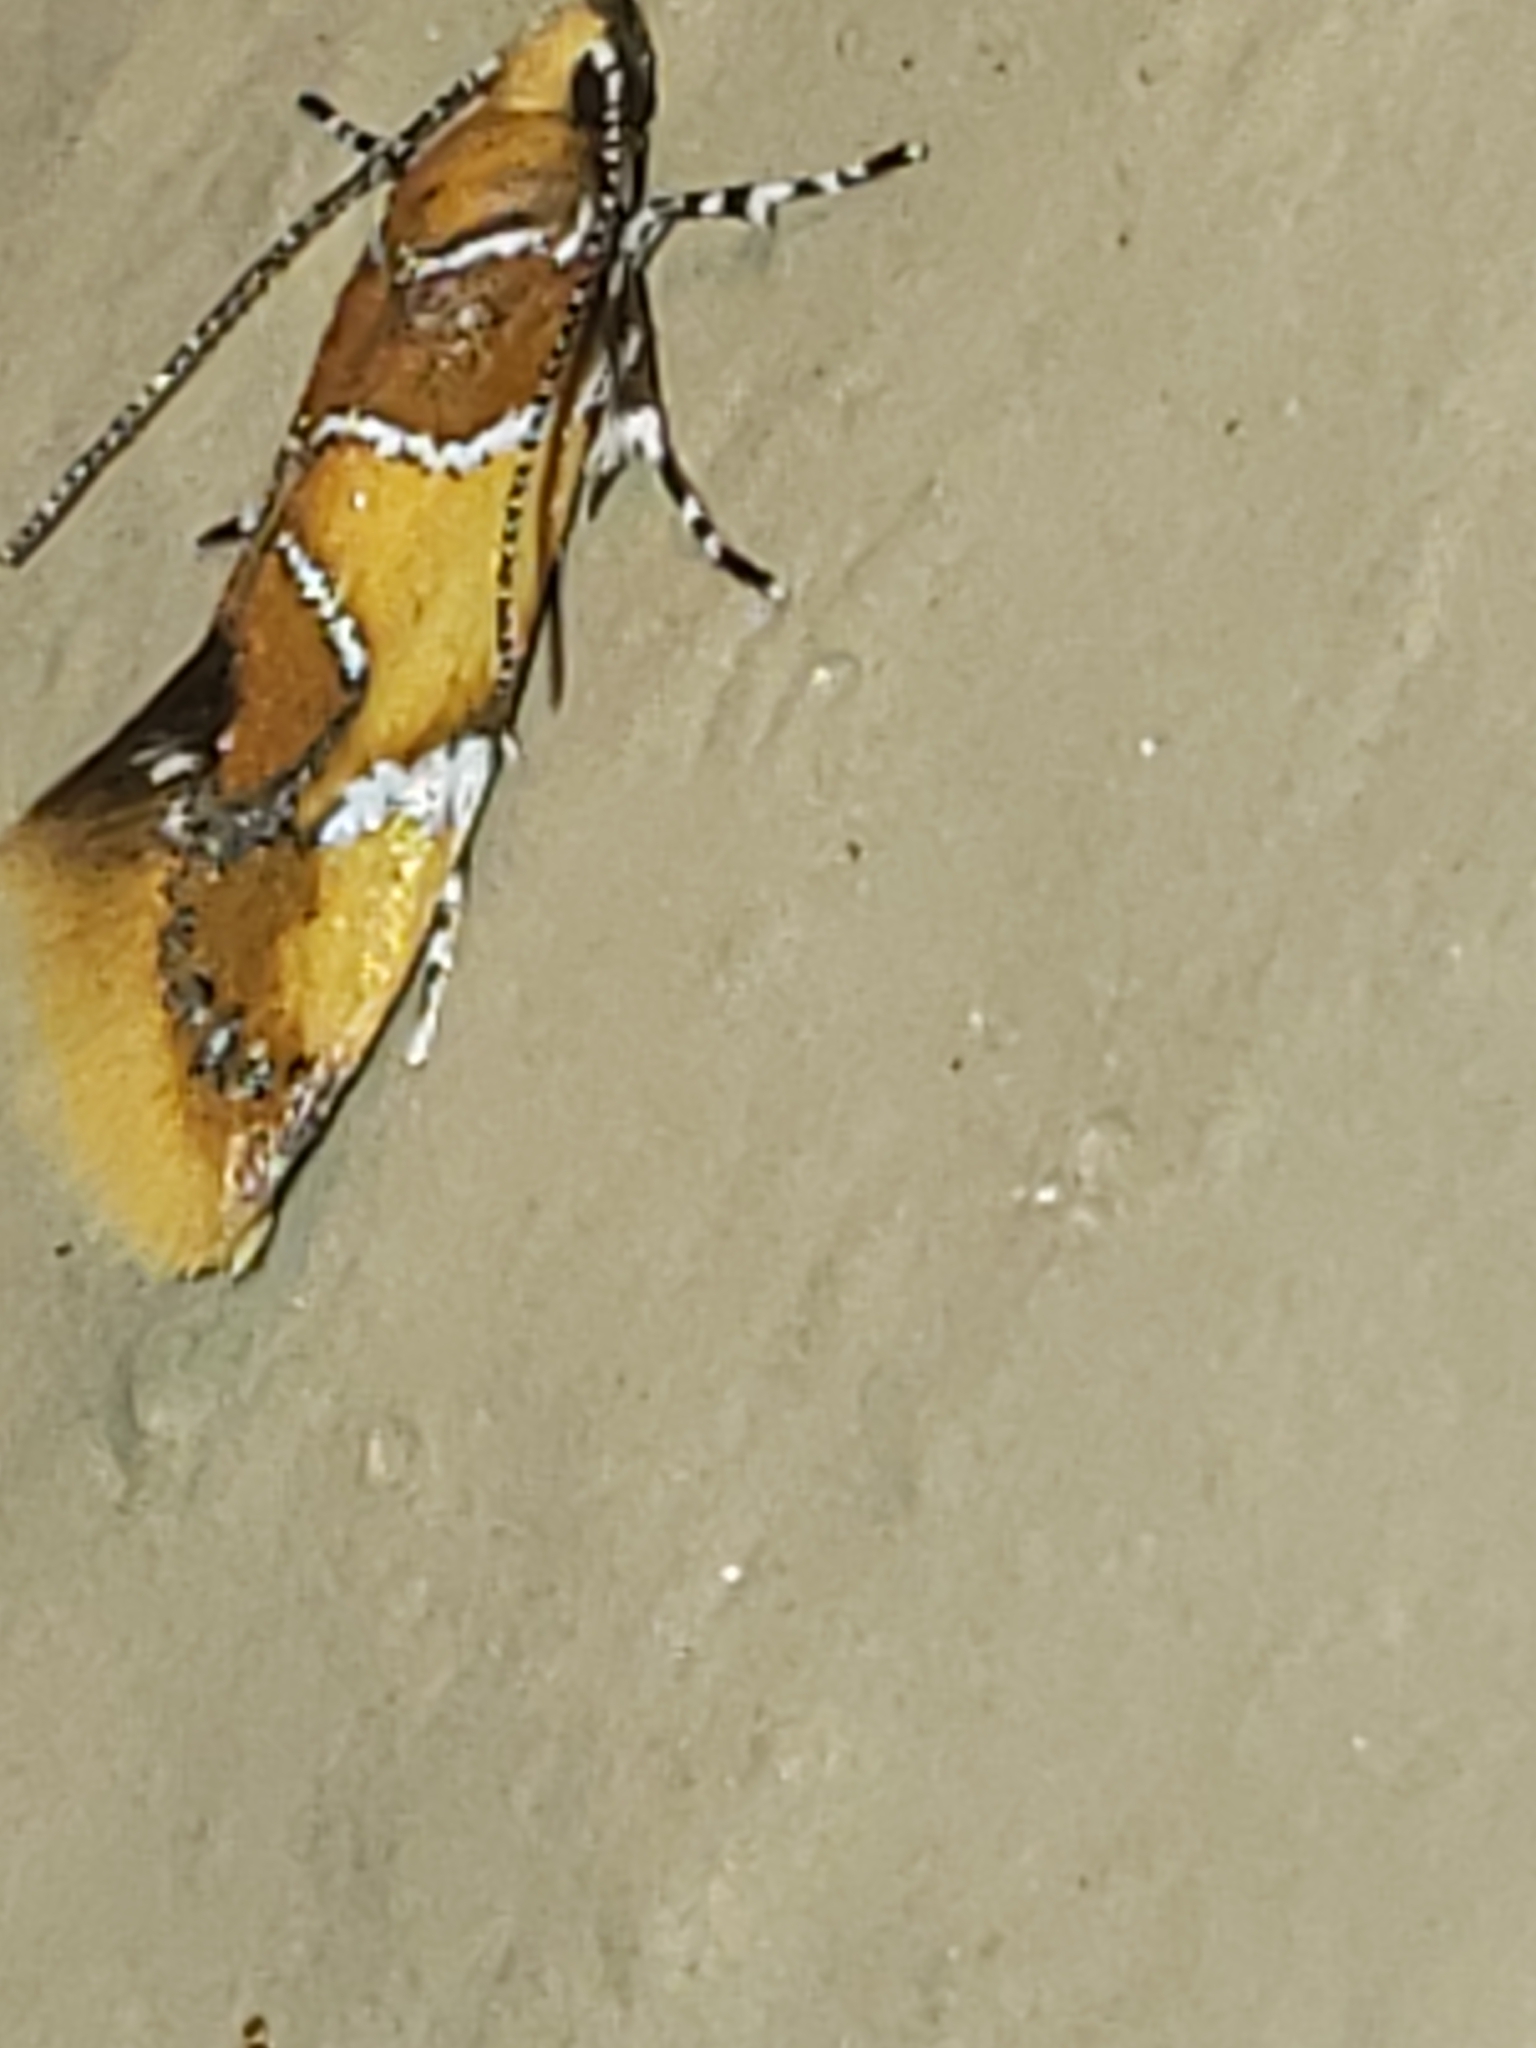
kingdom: Animalia
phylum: Arthropoda
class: Insecta
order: Lepidoptera
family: Oecophoridae
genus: Callima
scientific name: Callima argenticinctella
